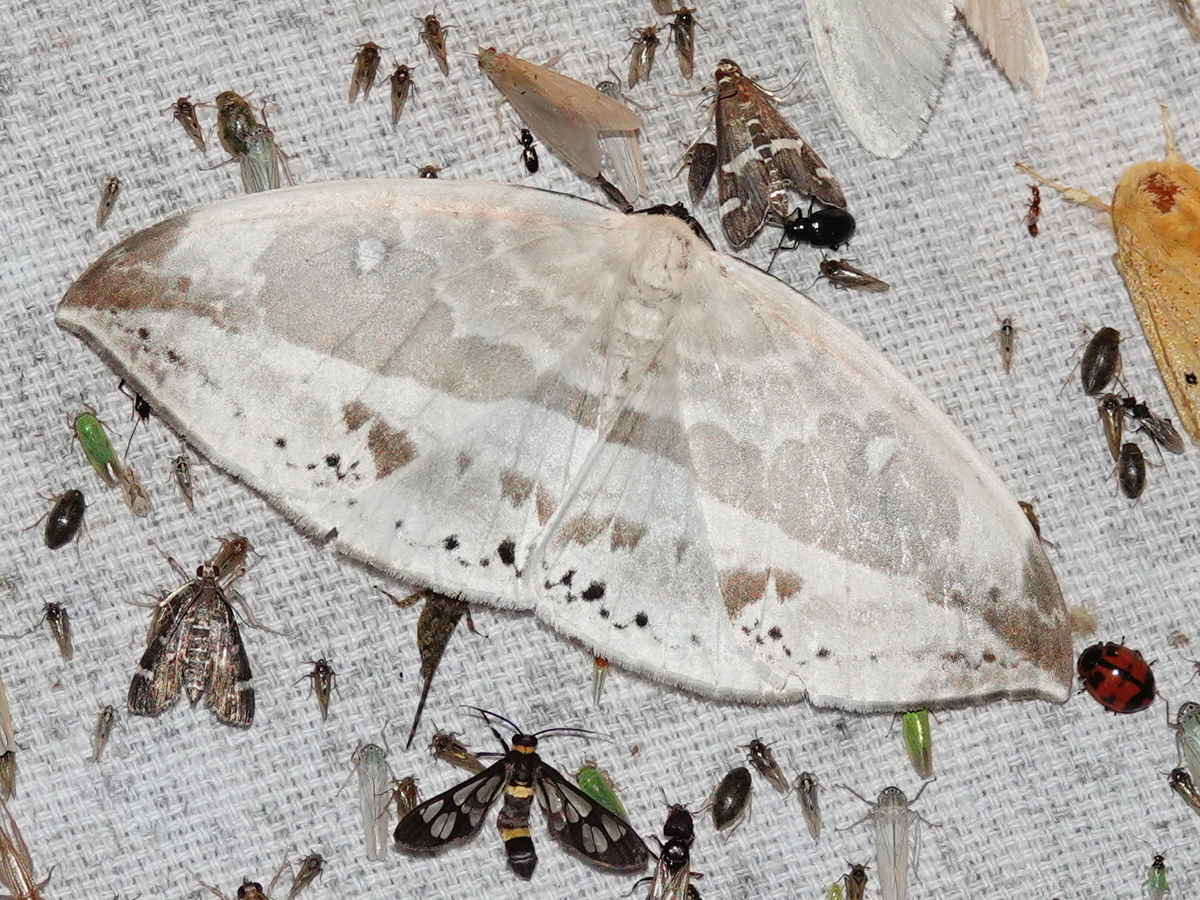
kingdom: Animalia
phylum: Arthropoda
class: Insecta
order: Lepidoptera
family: Drepanidae
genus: Cyclidia
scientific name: Cyclidia substigmaria
